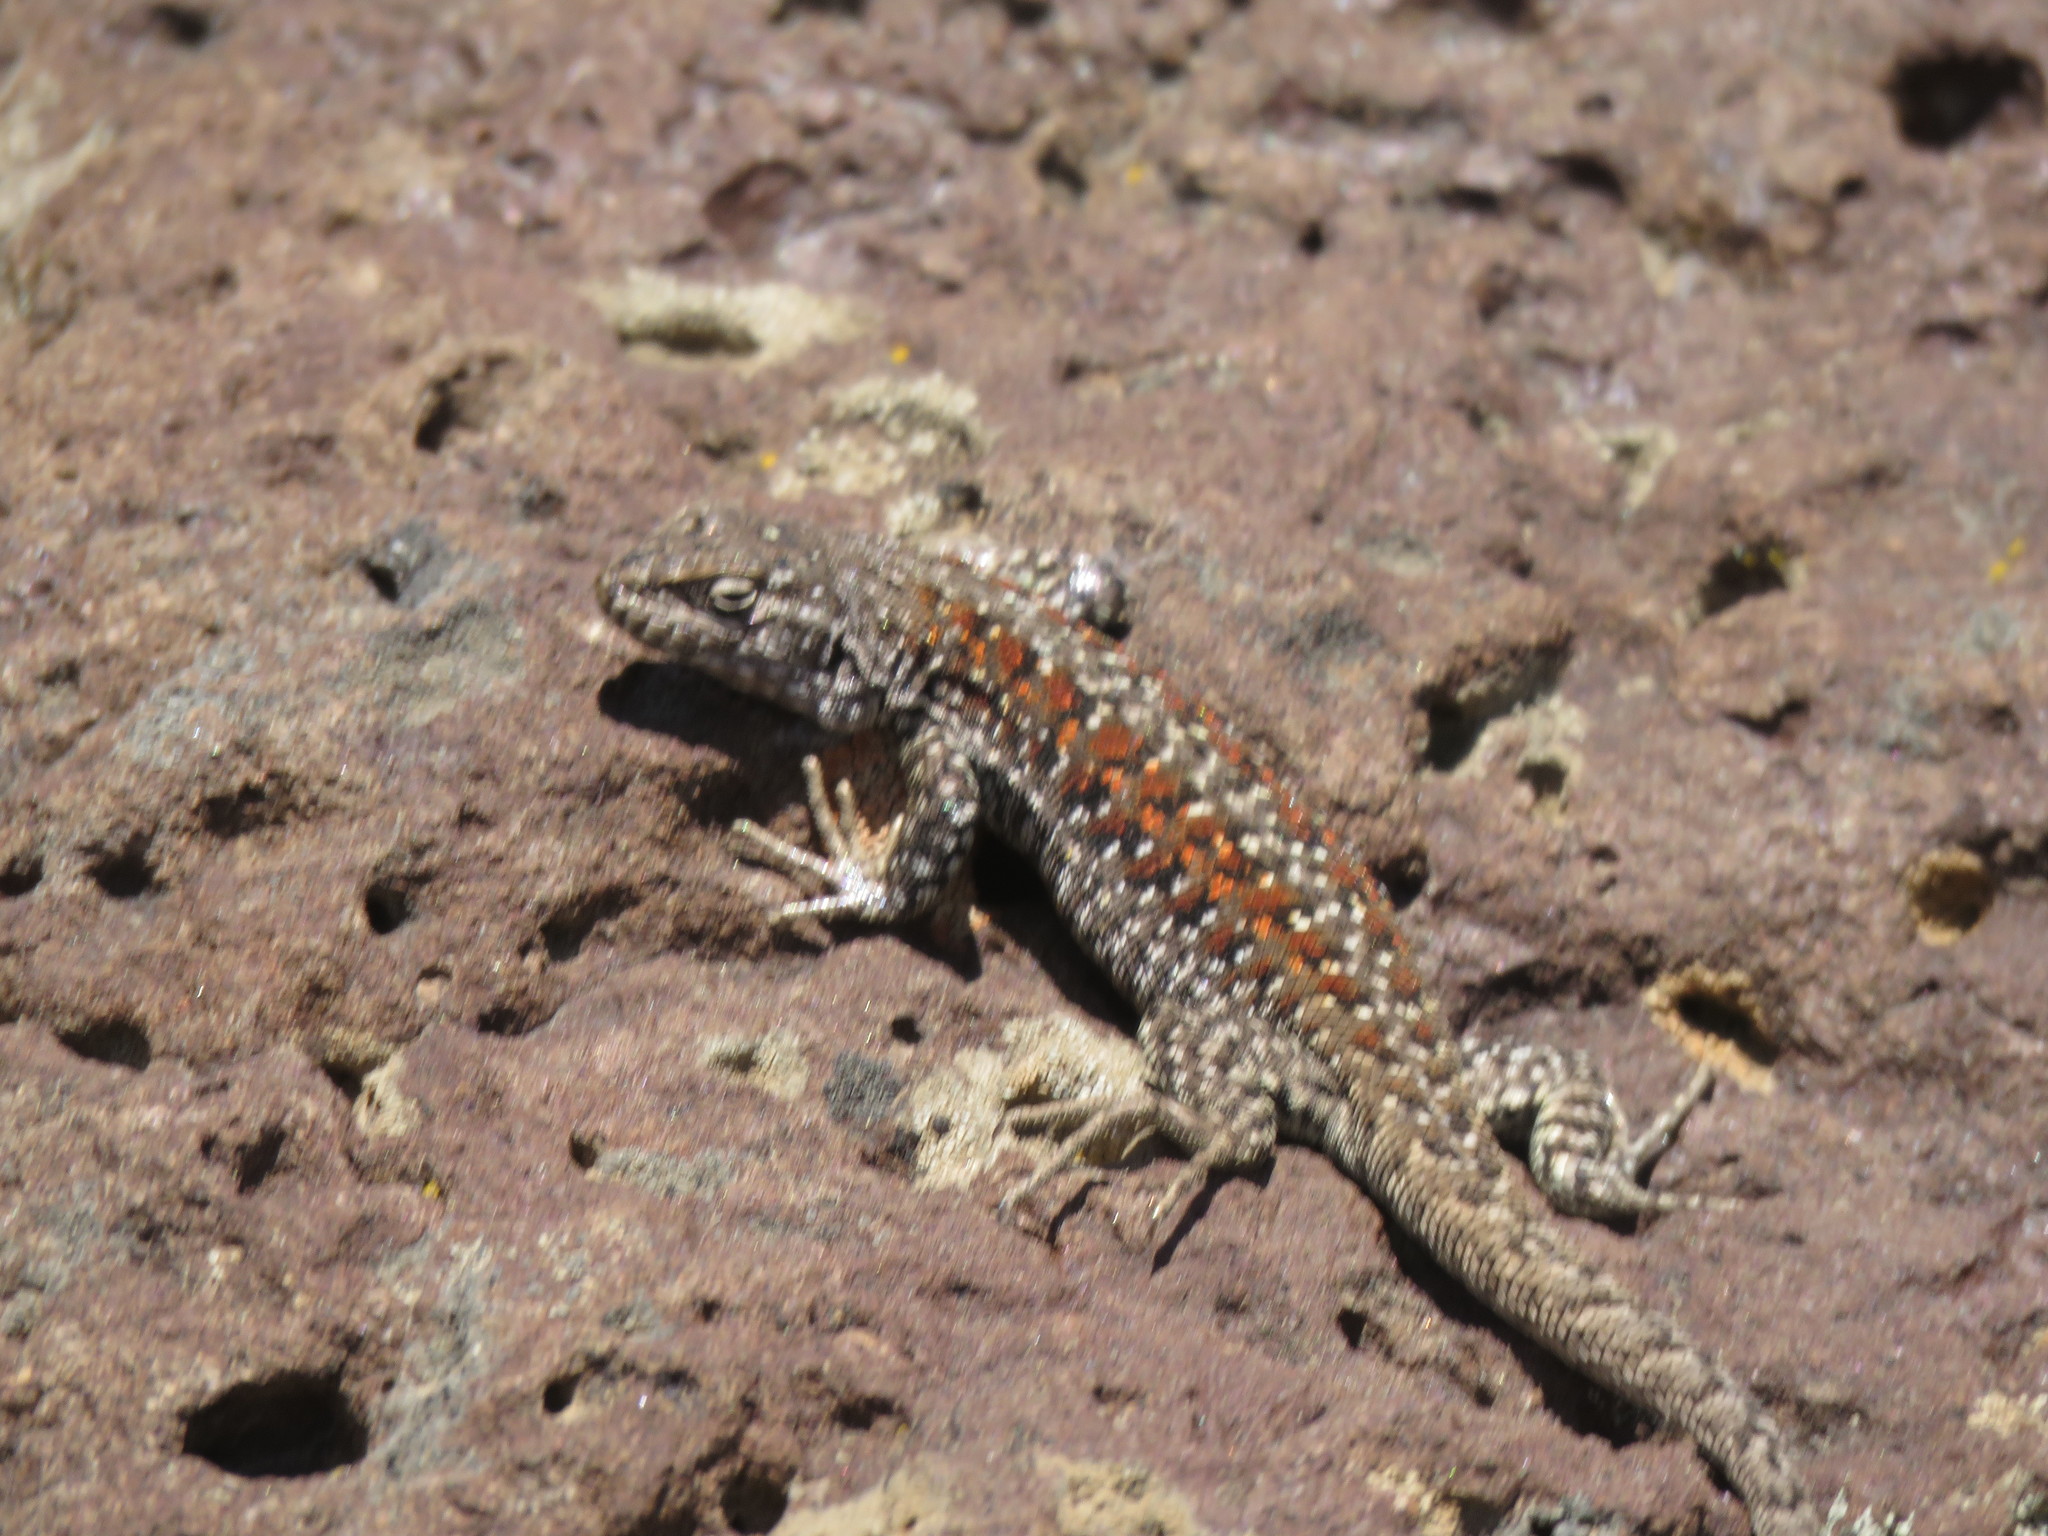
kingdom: Animalia
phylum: Chordata
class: Squamata
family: Liolaemidae
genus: Liolaemus
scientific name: Liolaemus archeforus
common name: Main tree iguana
